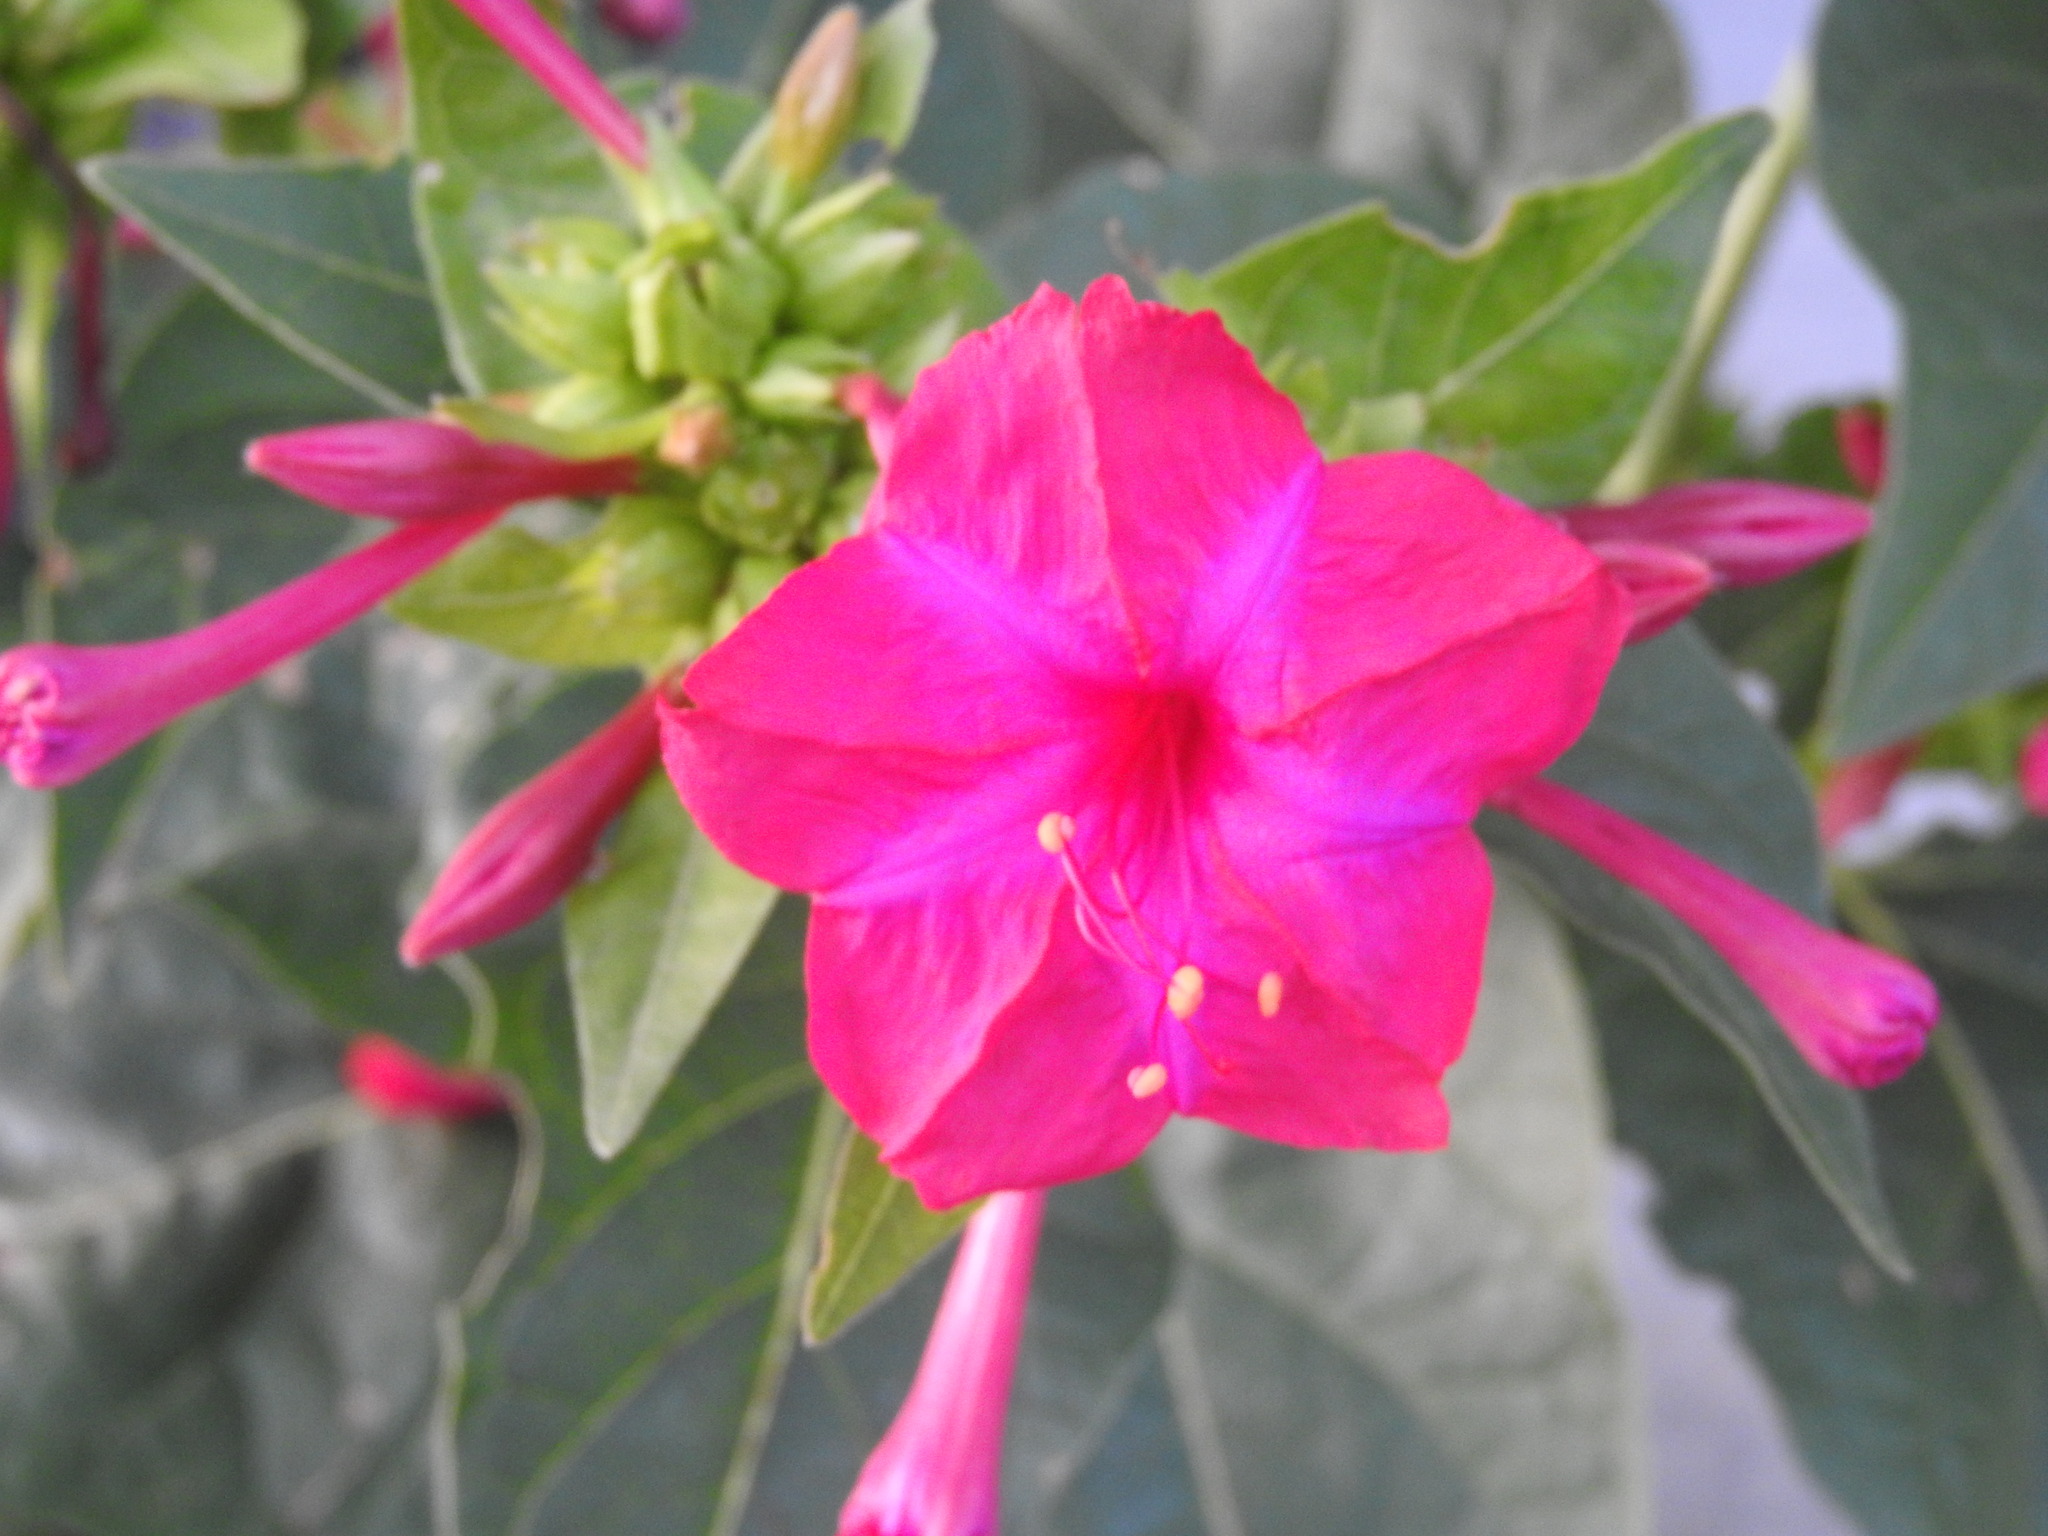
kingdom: Plantae
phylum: Tracheophyta
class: Magnoliopsida
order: Caryophyllales
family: Nyctaginaceae
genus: Mirabilis
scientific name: Mirabilis jalapa
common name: Marvel-of-peru
